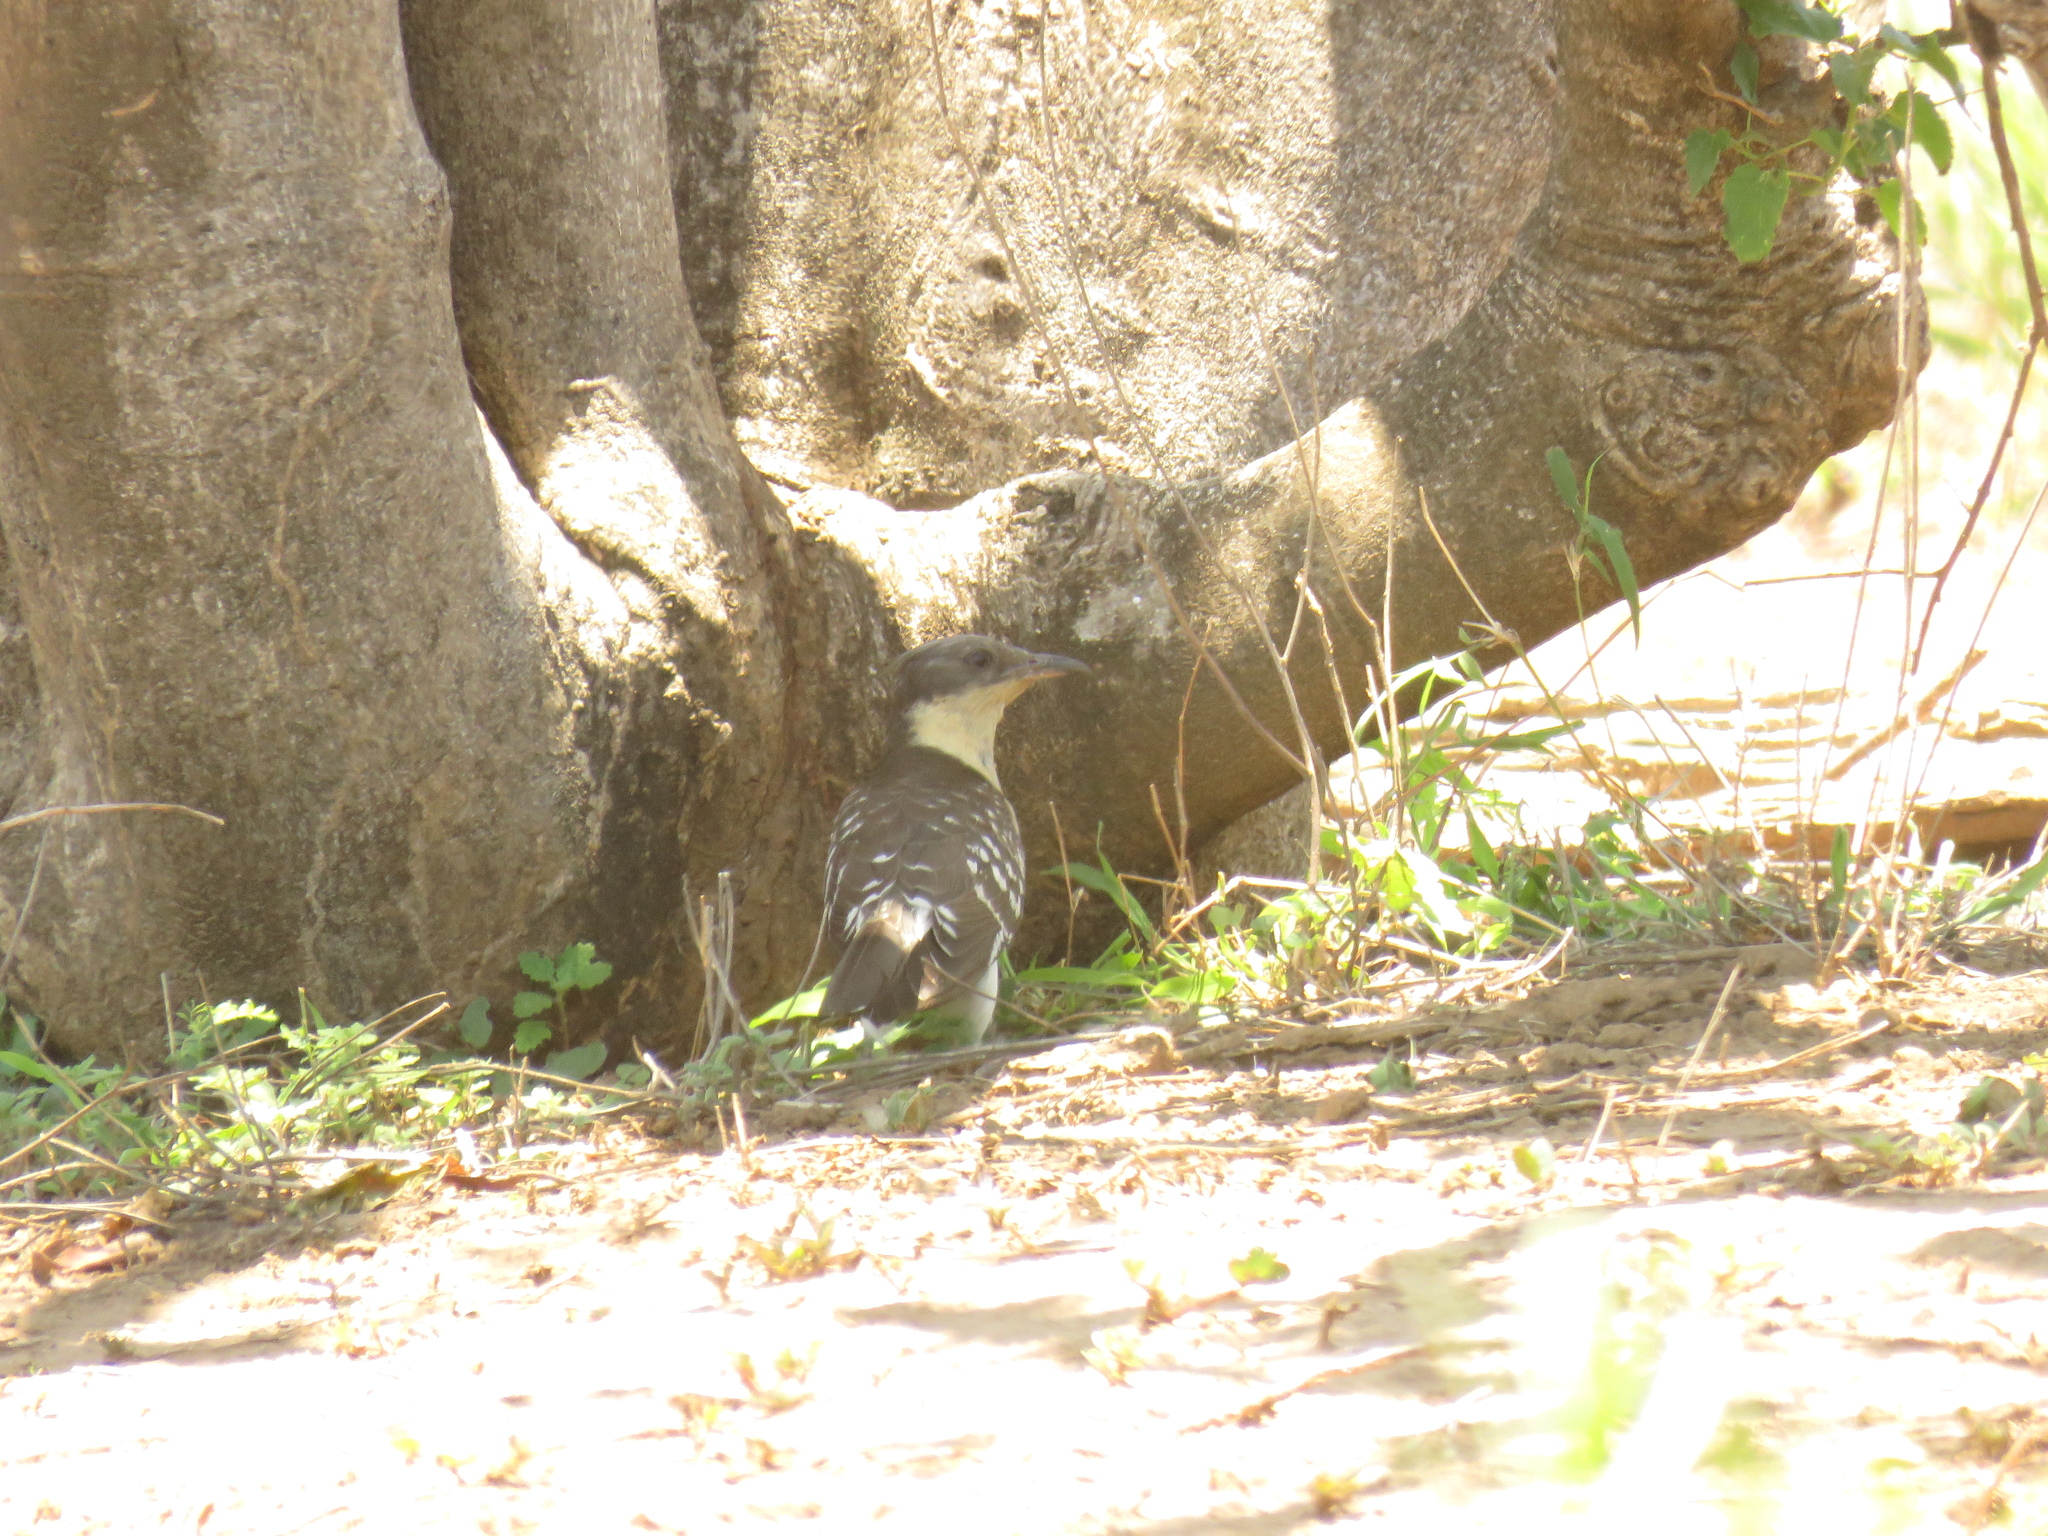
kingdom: Animalia
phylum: Chordata
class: Aves
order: Cuculiformes
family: Cuculidae
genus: Clamator
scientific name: Clamator glandarius
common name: Great spotted cuckoo
